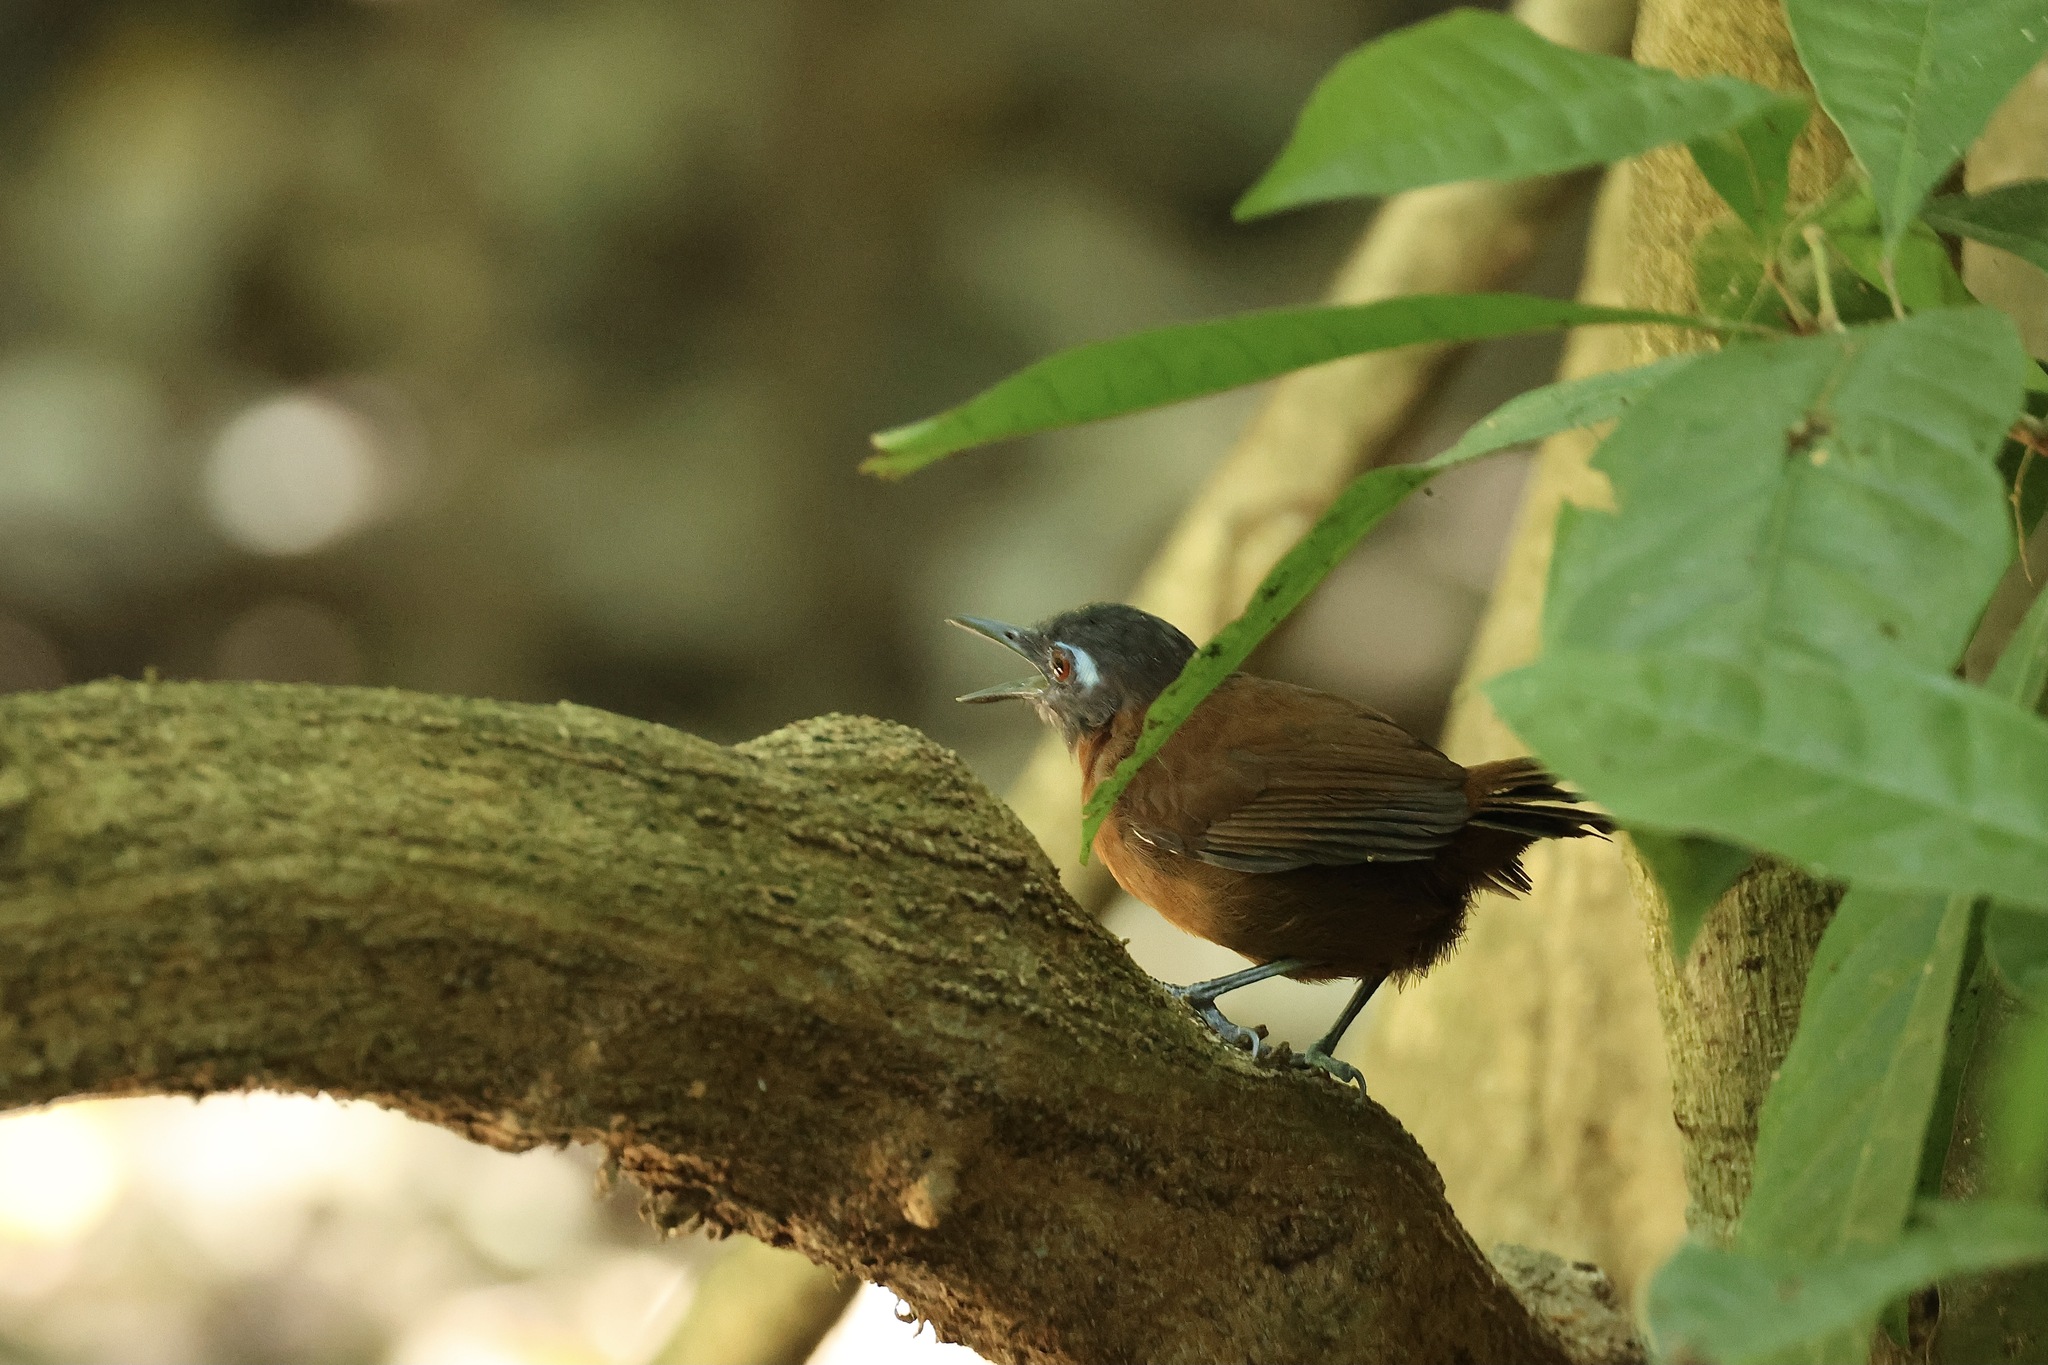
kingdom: Animalia
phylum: Chordata
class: Aves
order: Passeriformes
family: Thamnophilidae
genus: Myrmeciza
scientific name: Myrmeciza exsul
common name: Chestnut-backed antbird
